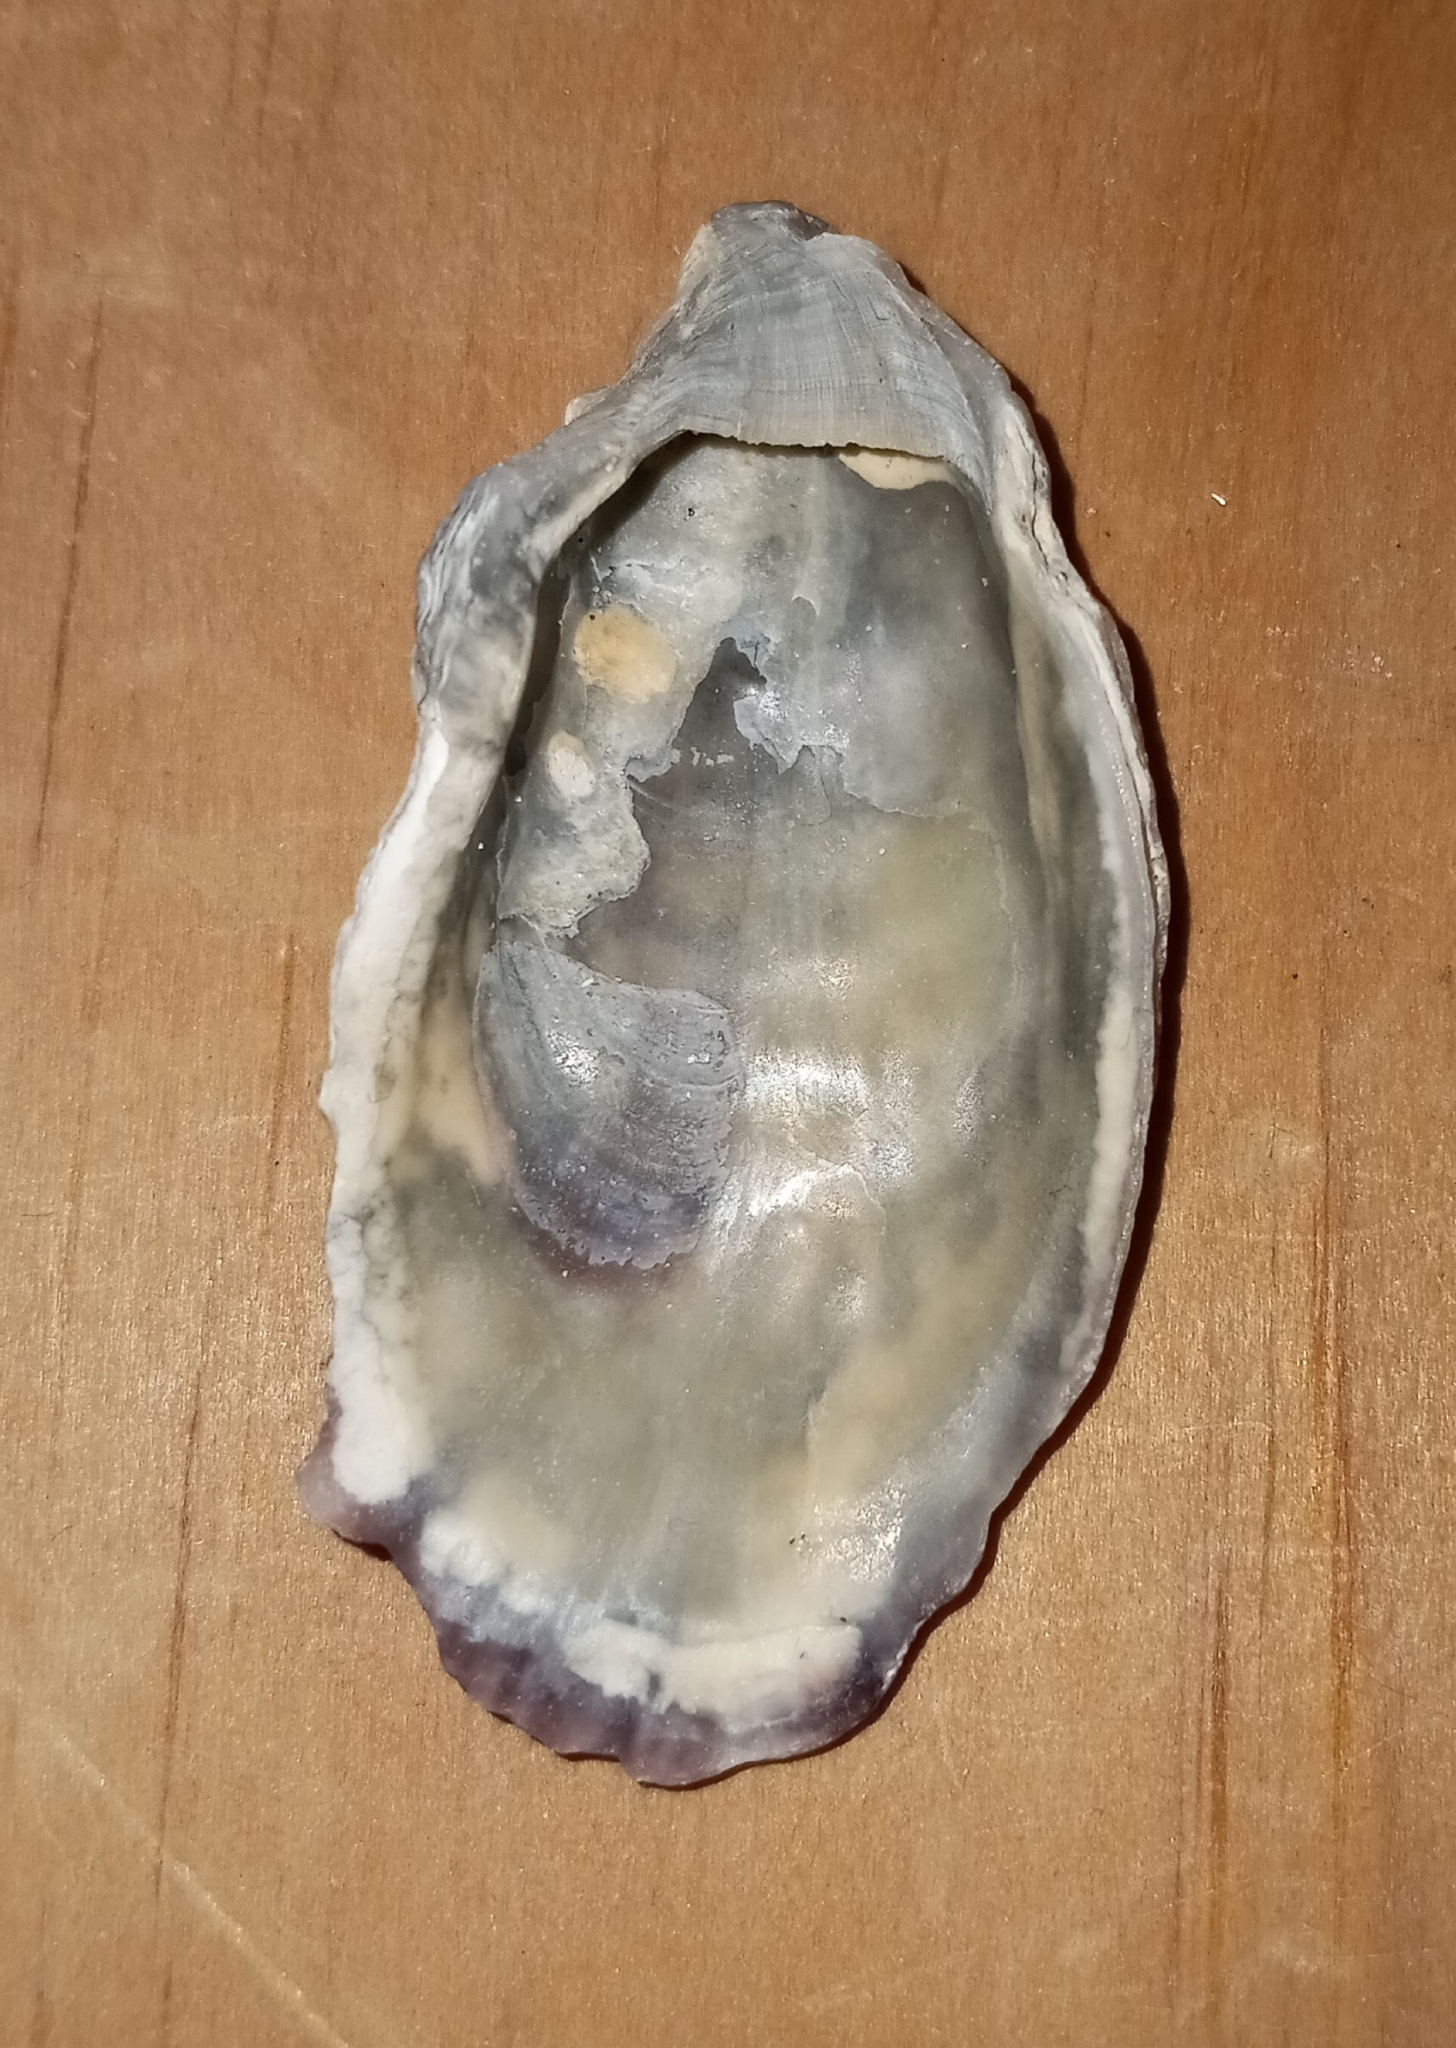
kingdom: Animalia
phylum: Mollusca
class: Bivalvia
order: Ostreida
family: Ostreidae
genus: Crassostrea
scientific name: Crassostrea virginica
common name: American oyster
